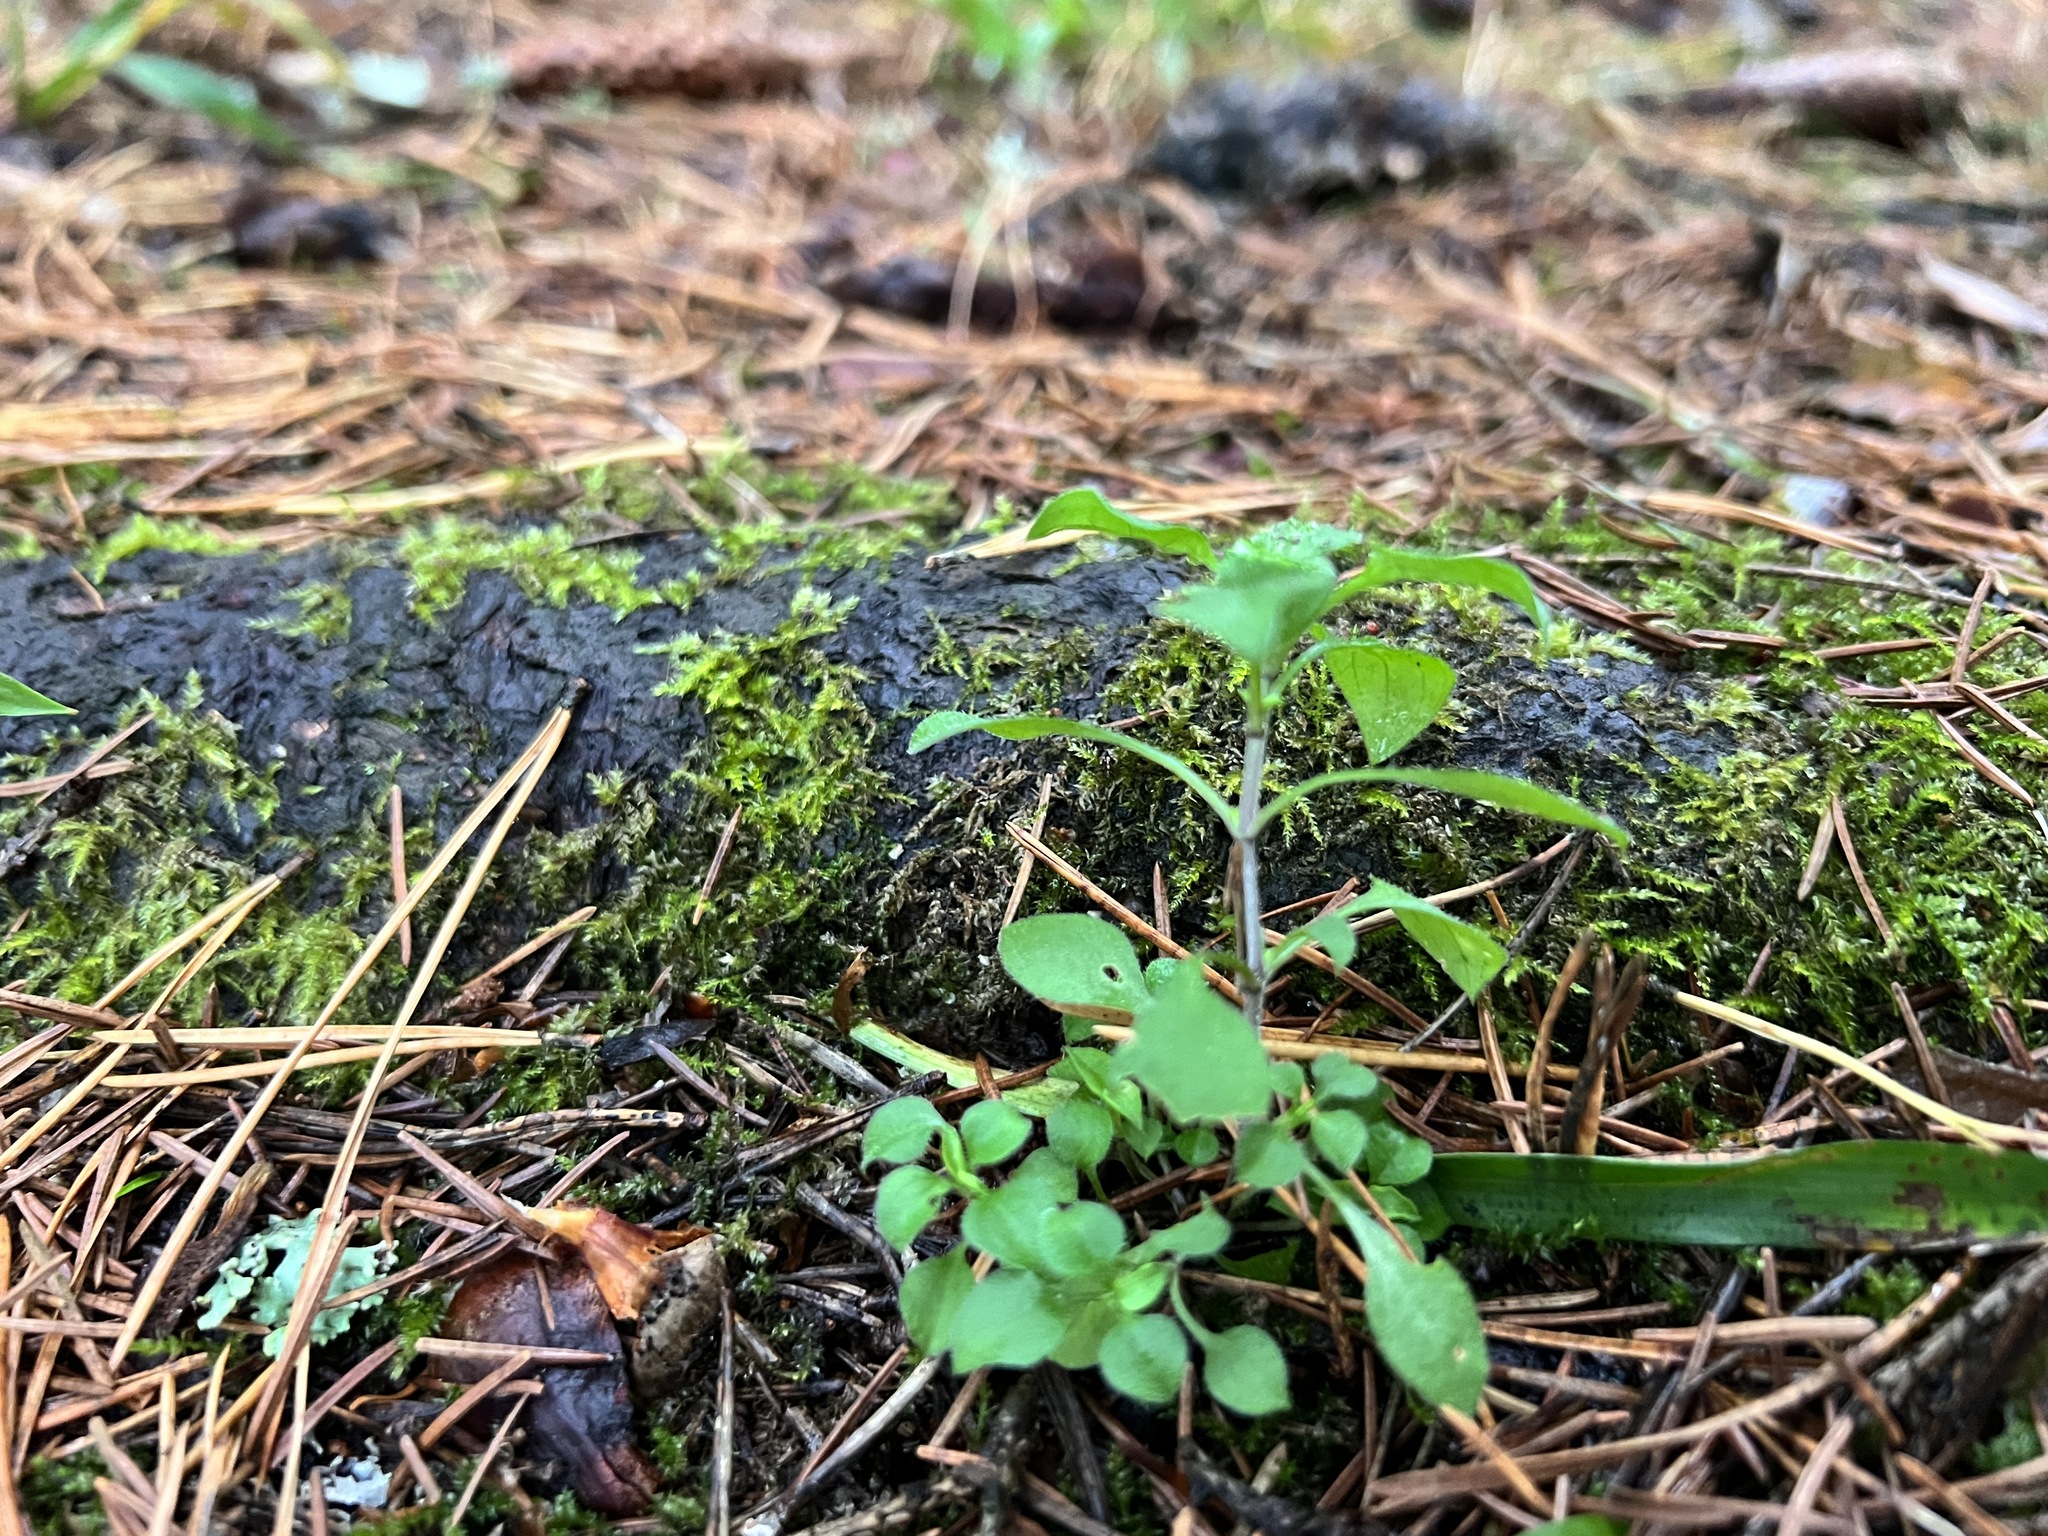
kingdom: Plantae
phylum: Tracheophyta
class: Magnoliopsida
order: Caryophyllales
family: Caryophyllaceae
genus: Moehringia
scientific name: Moehringia trinervia
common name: Three-nerved sandwort
